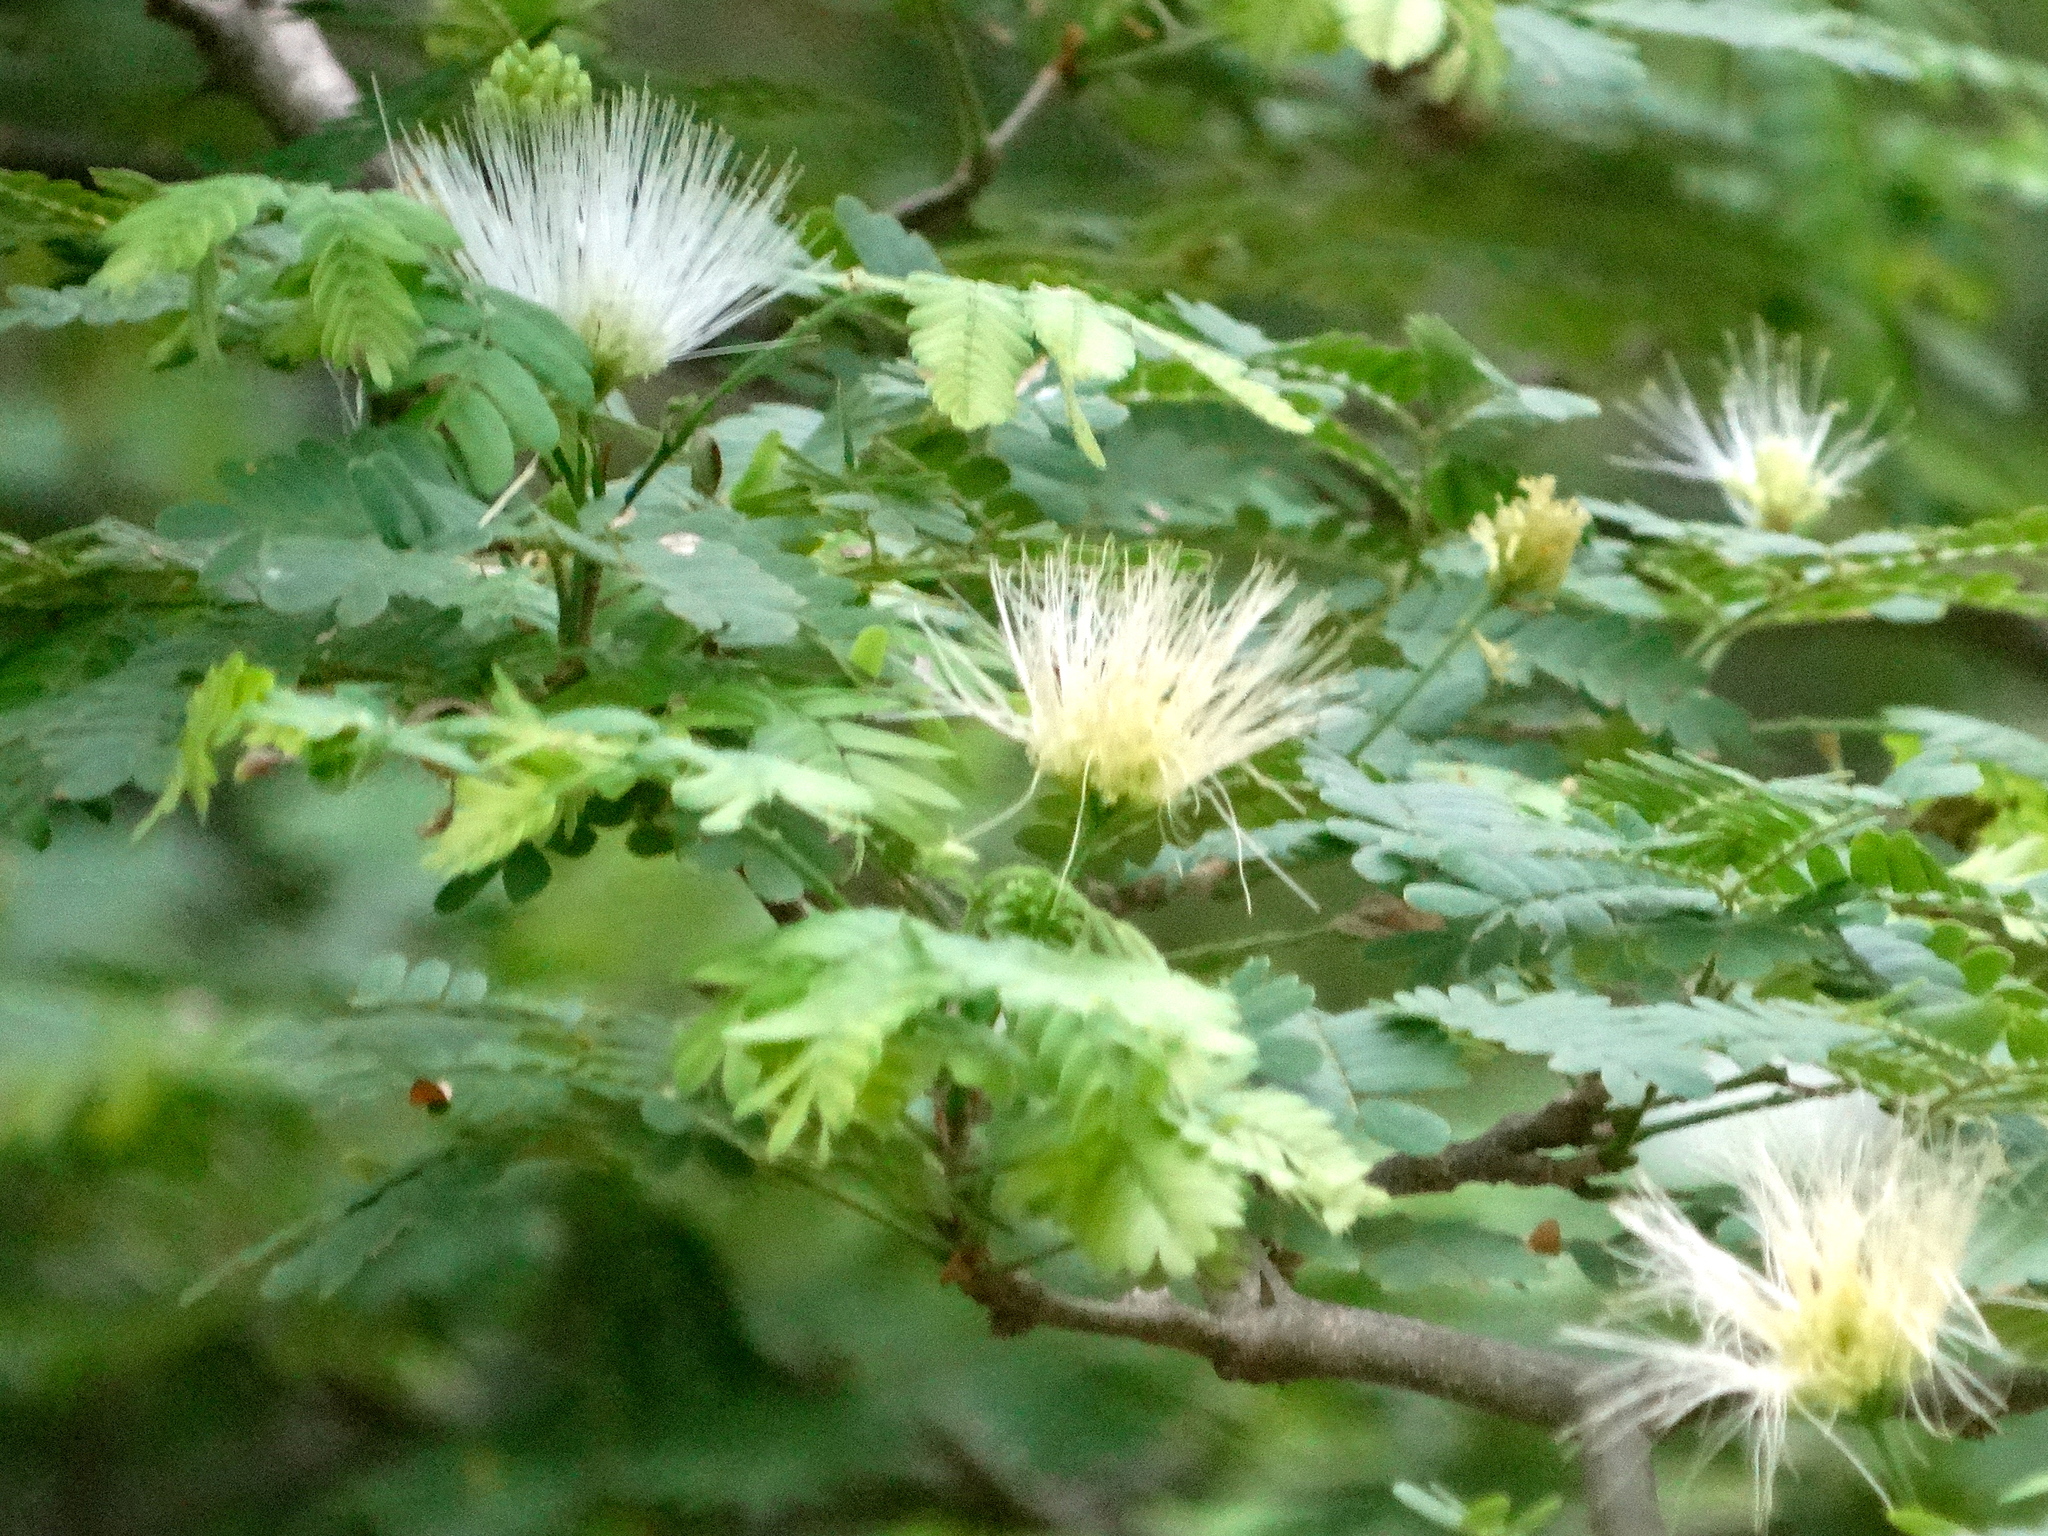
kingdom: Plantae
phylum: Tracheophyta
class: Magnoliopsida
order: Fabales
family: Fabaceae
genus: Chloroleucon
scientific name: Chloroleucon mangense
